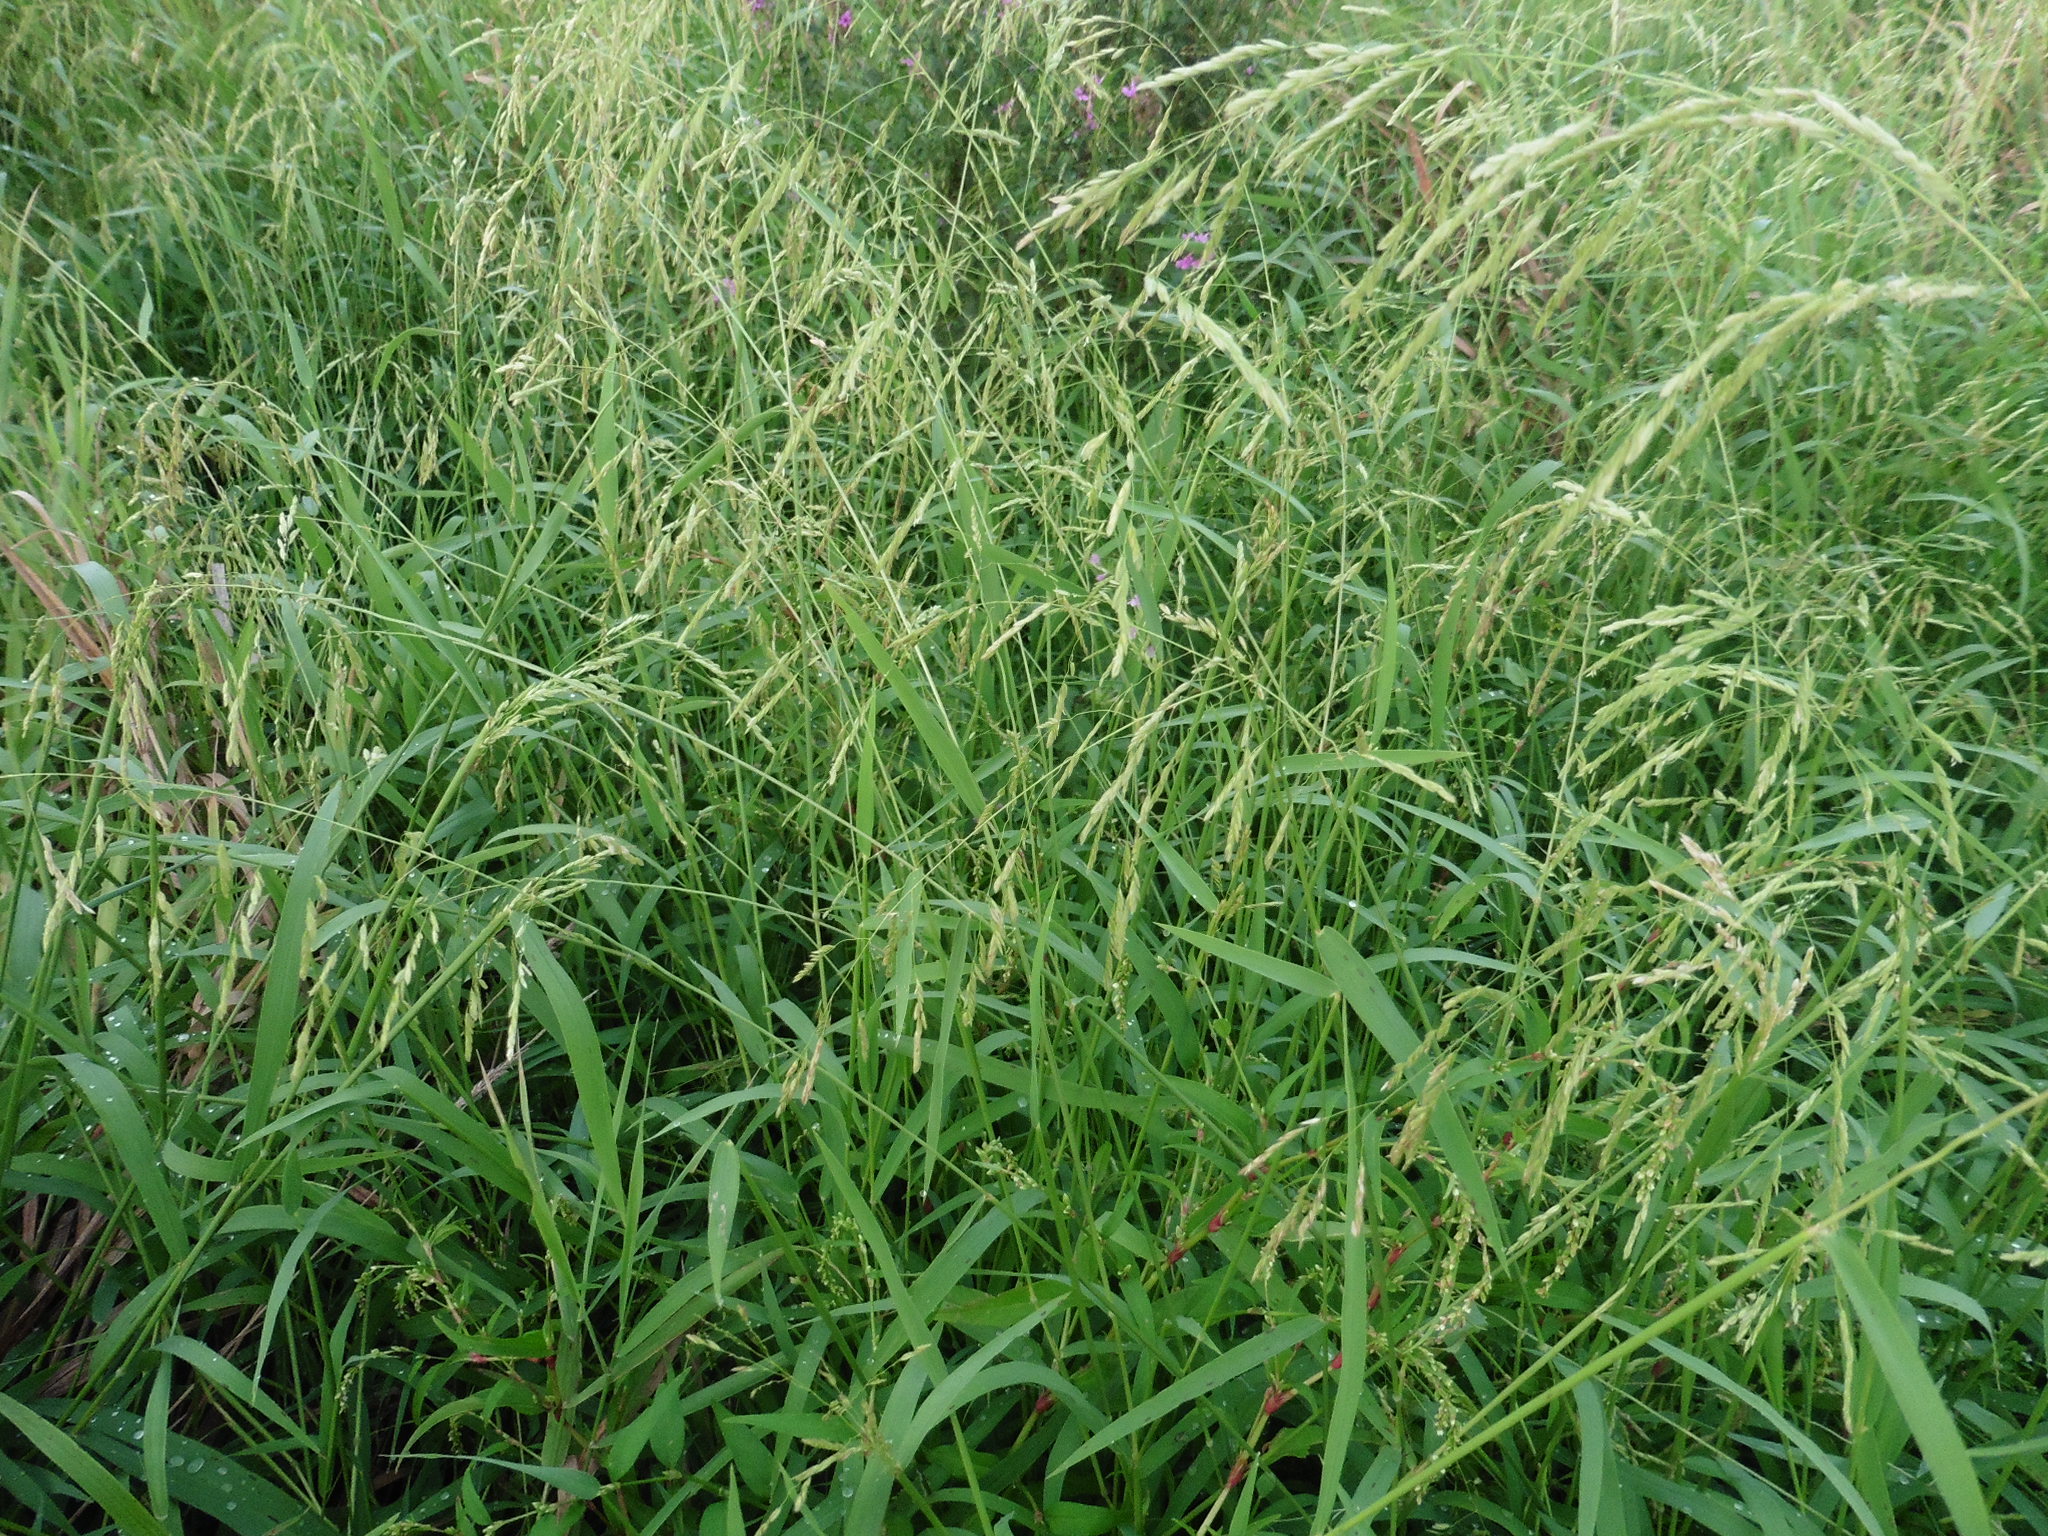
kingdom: Plantae
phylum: Tracheophyta
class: Liliopsida
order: Poales
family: Poaceae
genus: Leersia
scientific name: Leersia oryzoides
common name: Cut-grass
